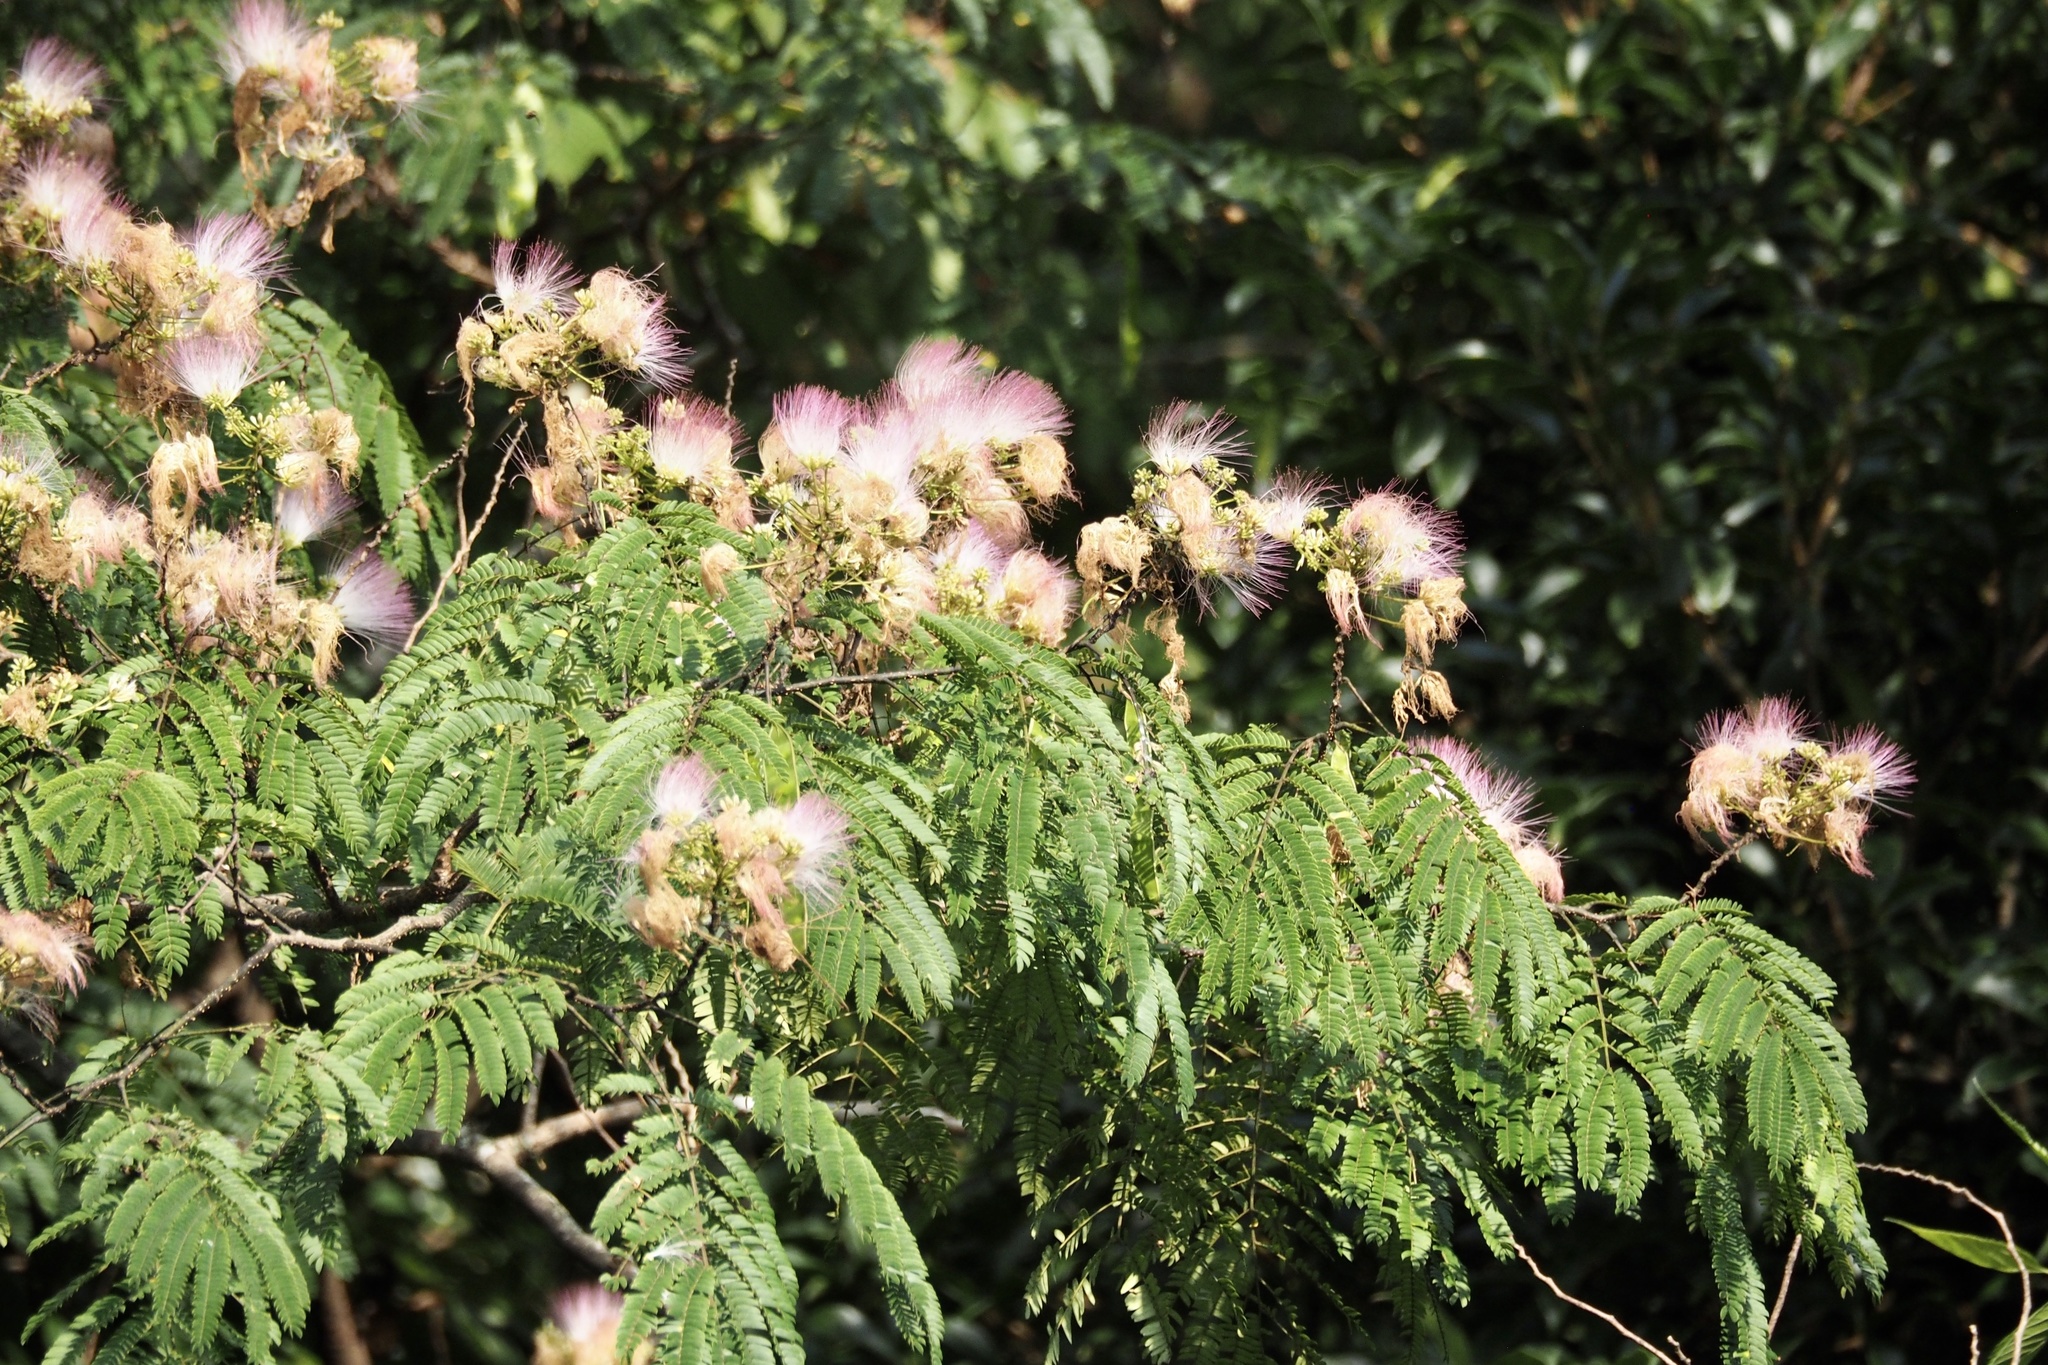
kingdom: Plantae
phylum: Tracheophyta
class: Magnoliopsida
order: Fabales
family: Fabaceae
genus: Albizia
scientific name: Albizia julibrissin
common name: Silktree
